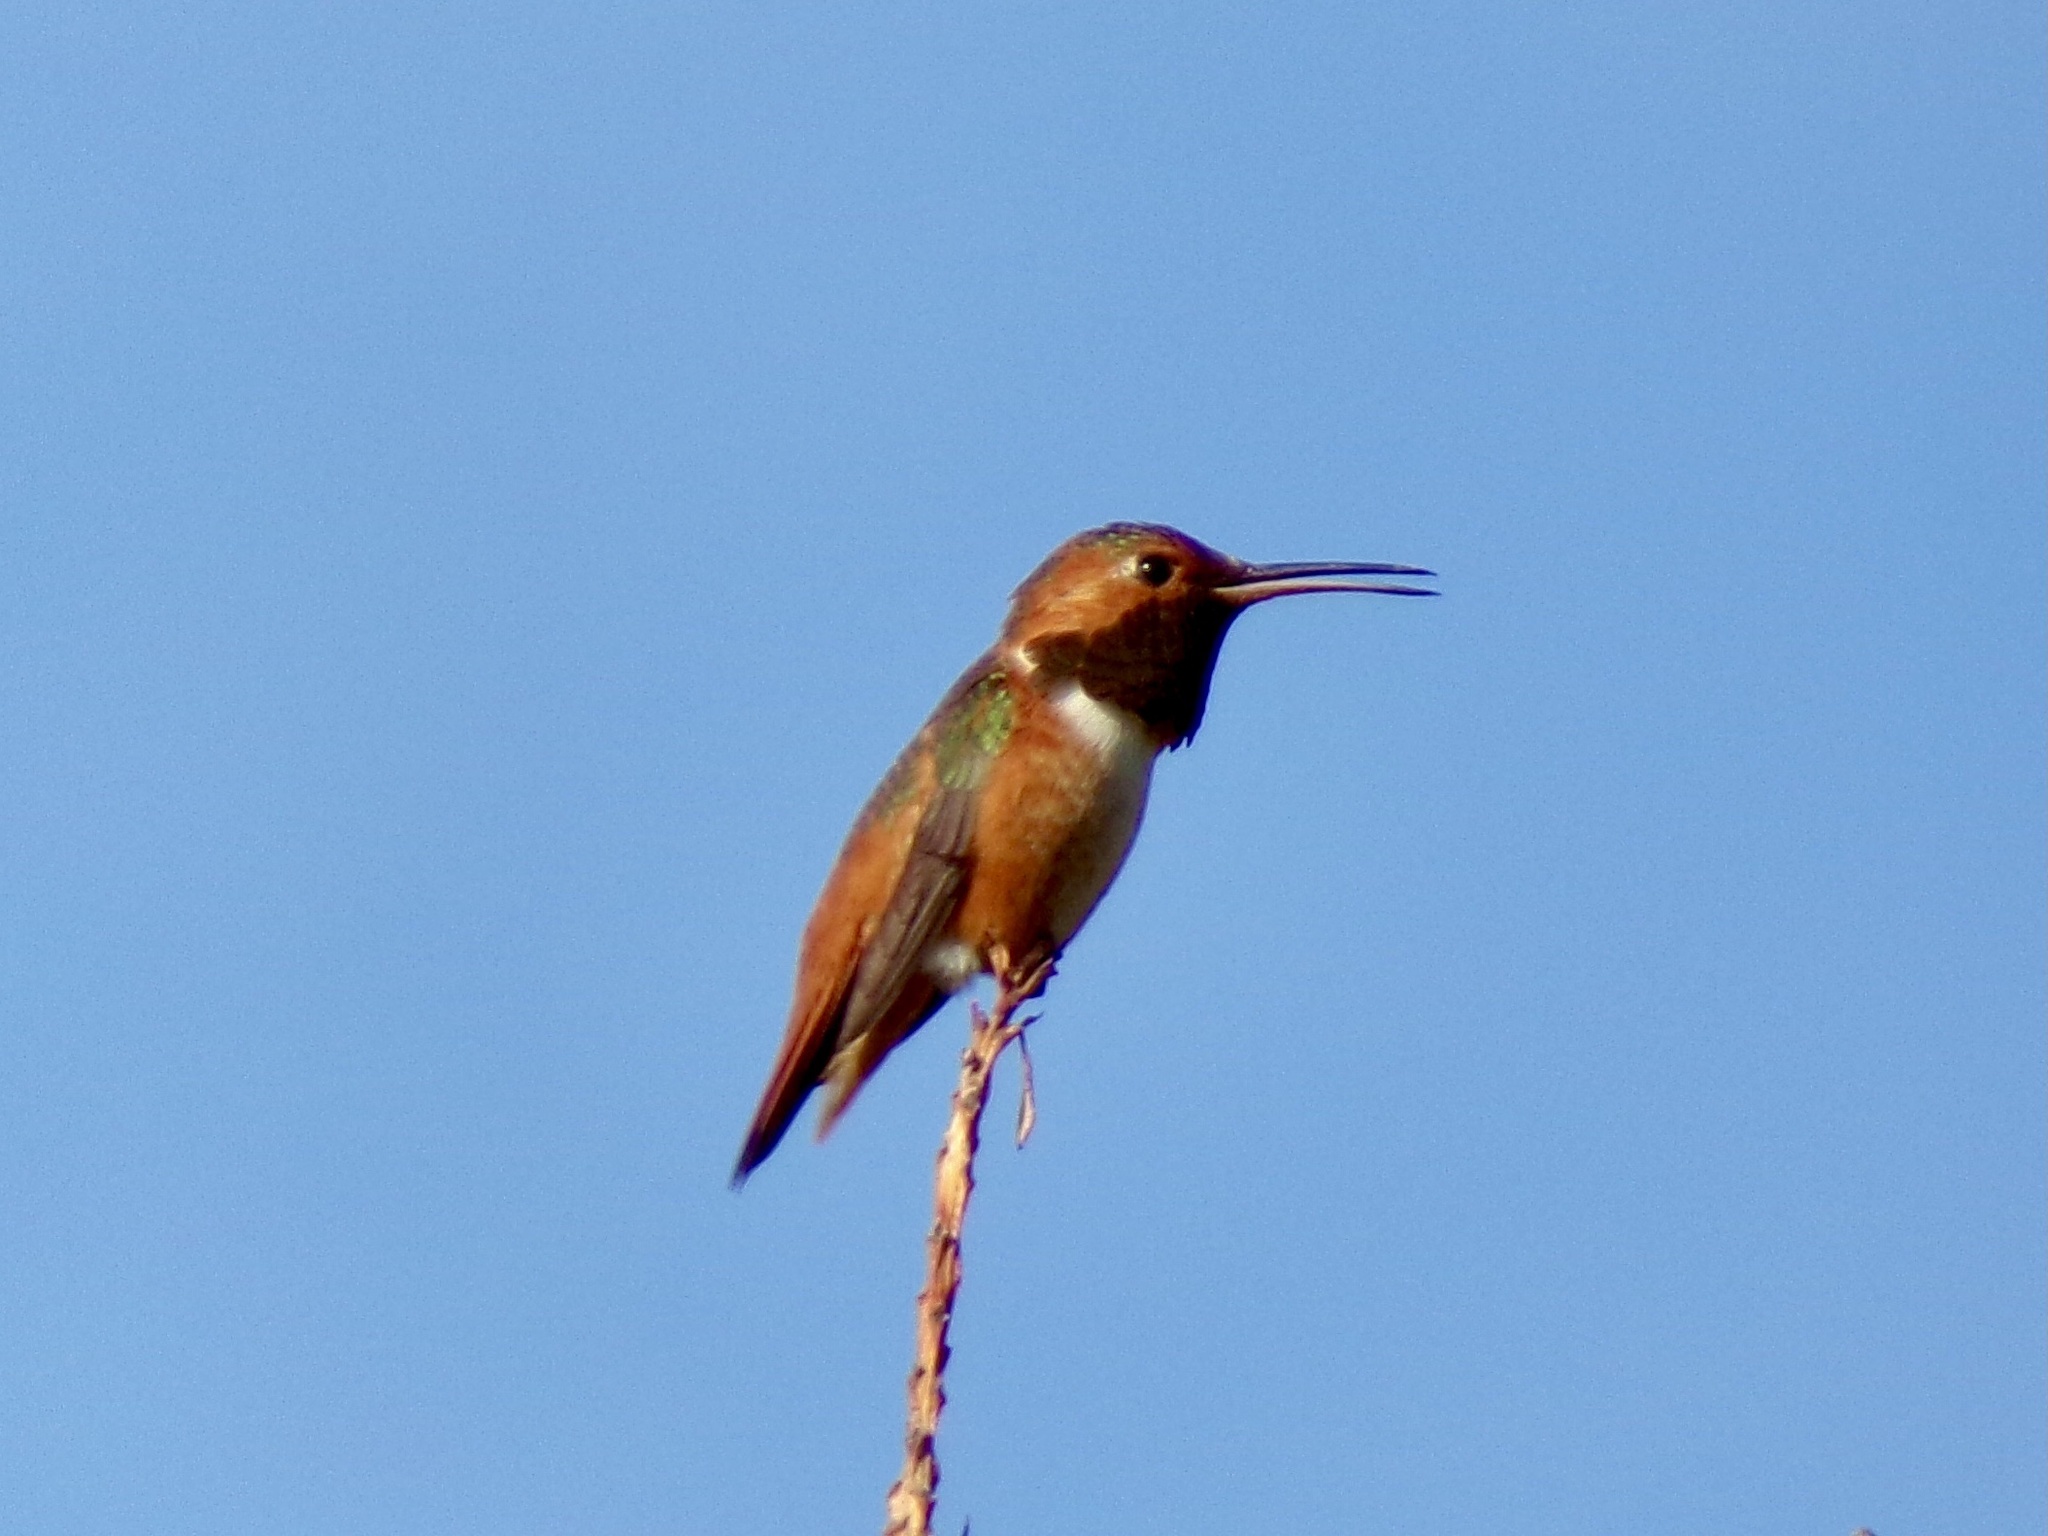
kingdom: Animalia
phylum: Chordata
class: Aves
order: Apodiformes
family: Trochilidae
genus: Selasphorus
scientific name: Selasphorus sasin
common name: Allen's hummingbird
